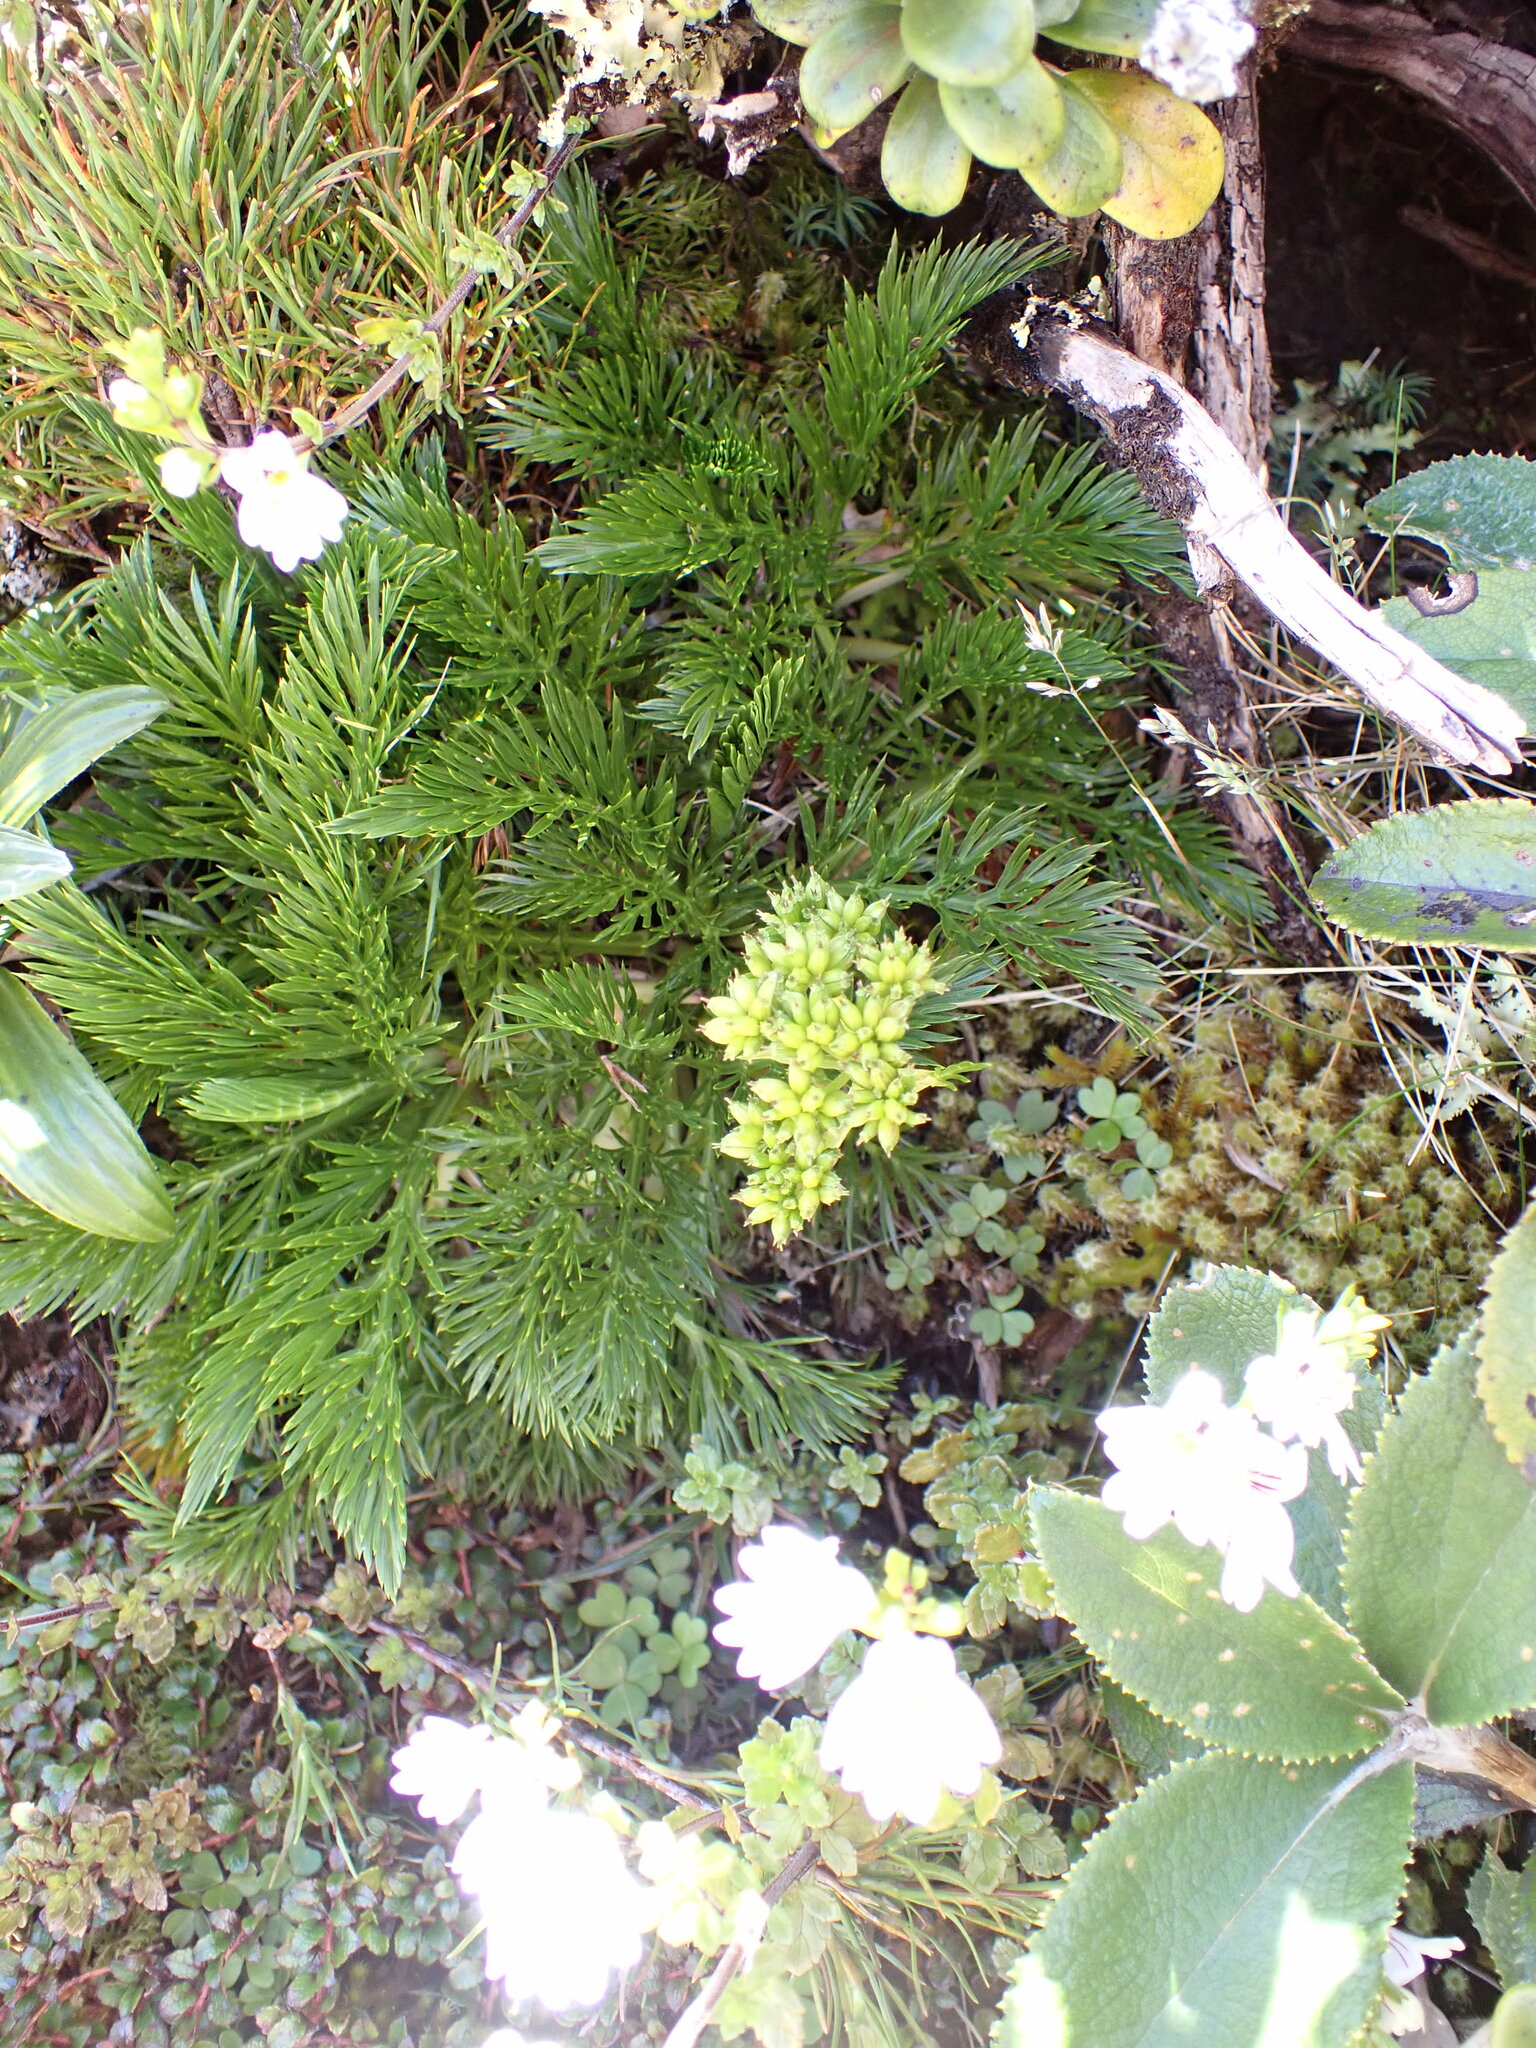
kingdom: Plantae
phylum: Tracheophyta
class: Magnoliopsida
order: Apiales
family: Apiaceae
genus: Aciphylla
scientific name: Aciphylla dissecta
